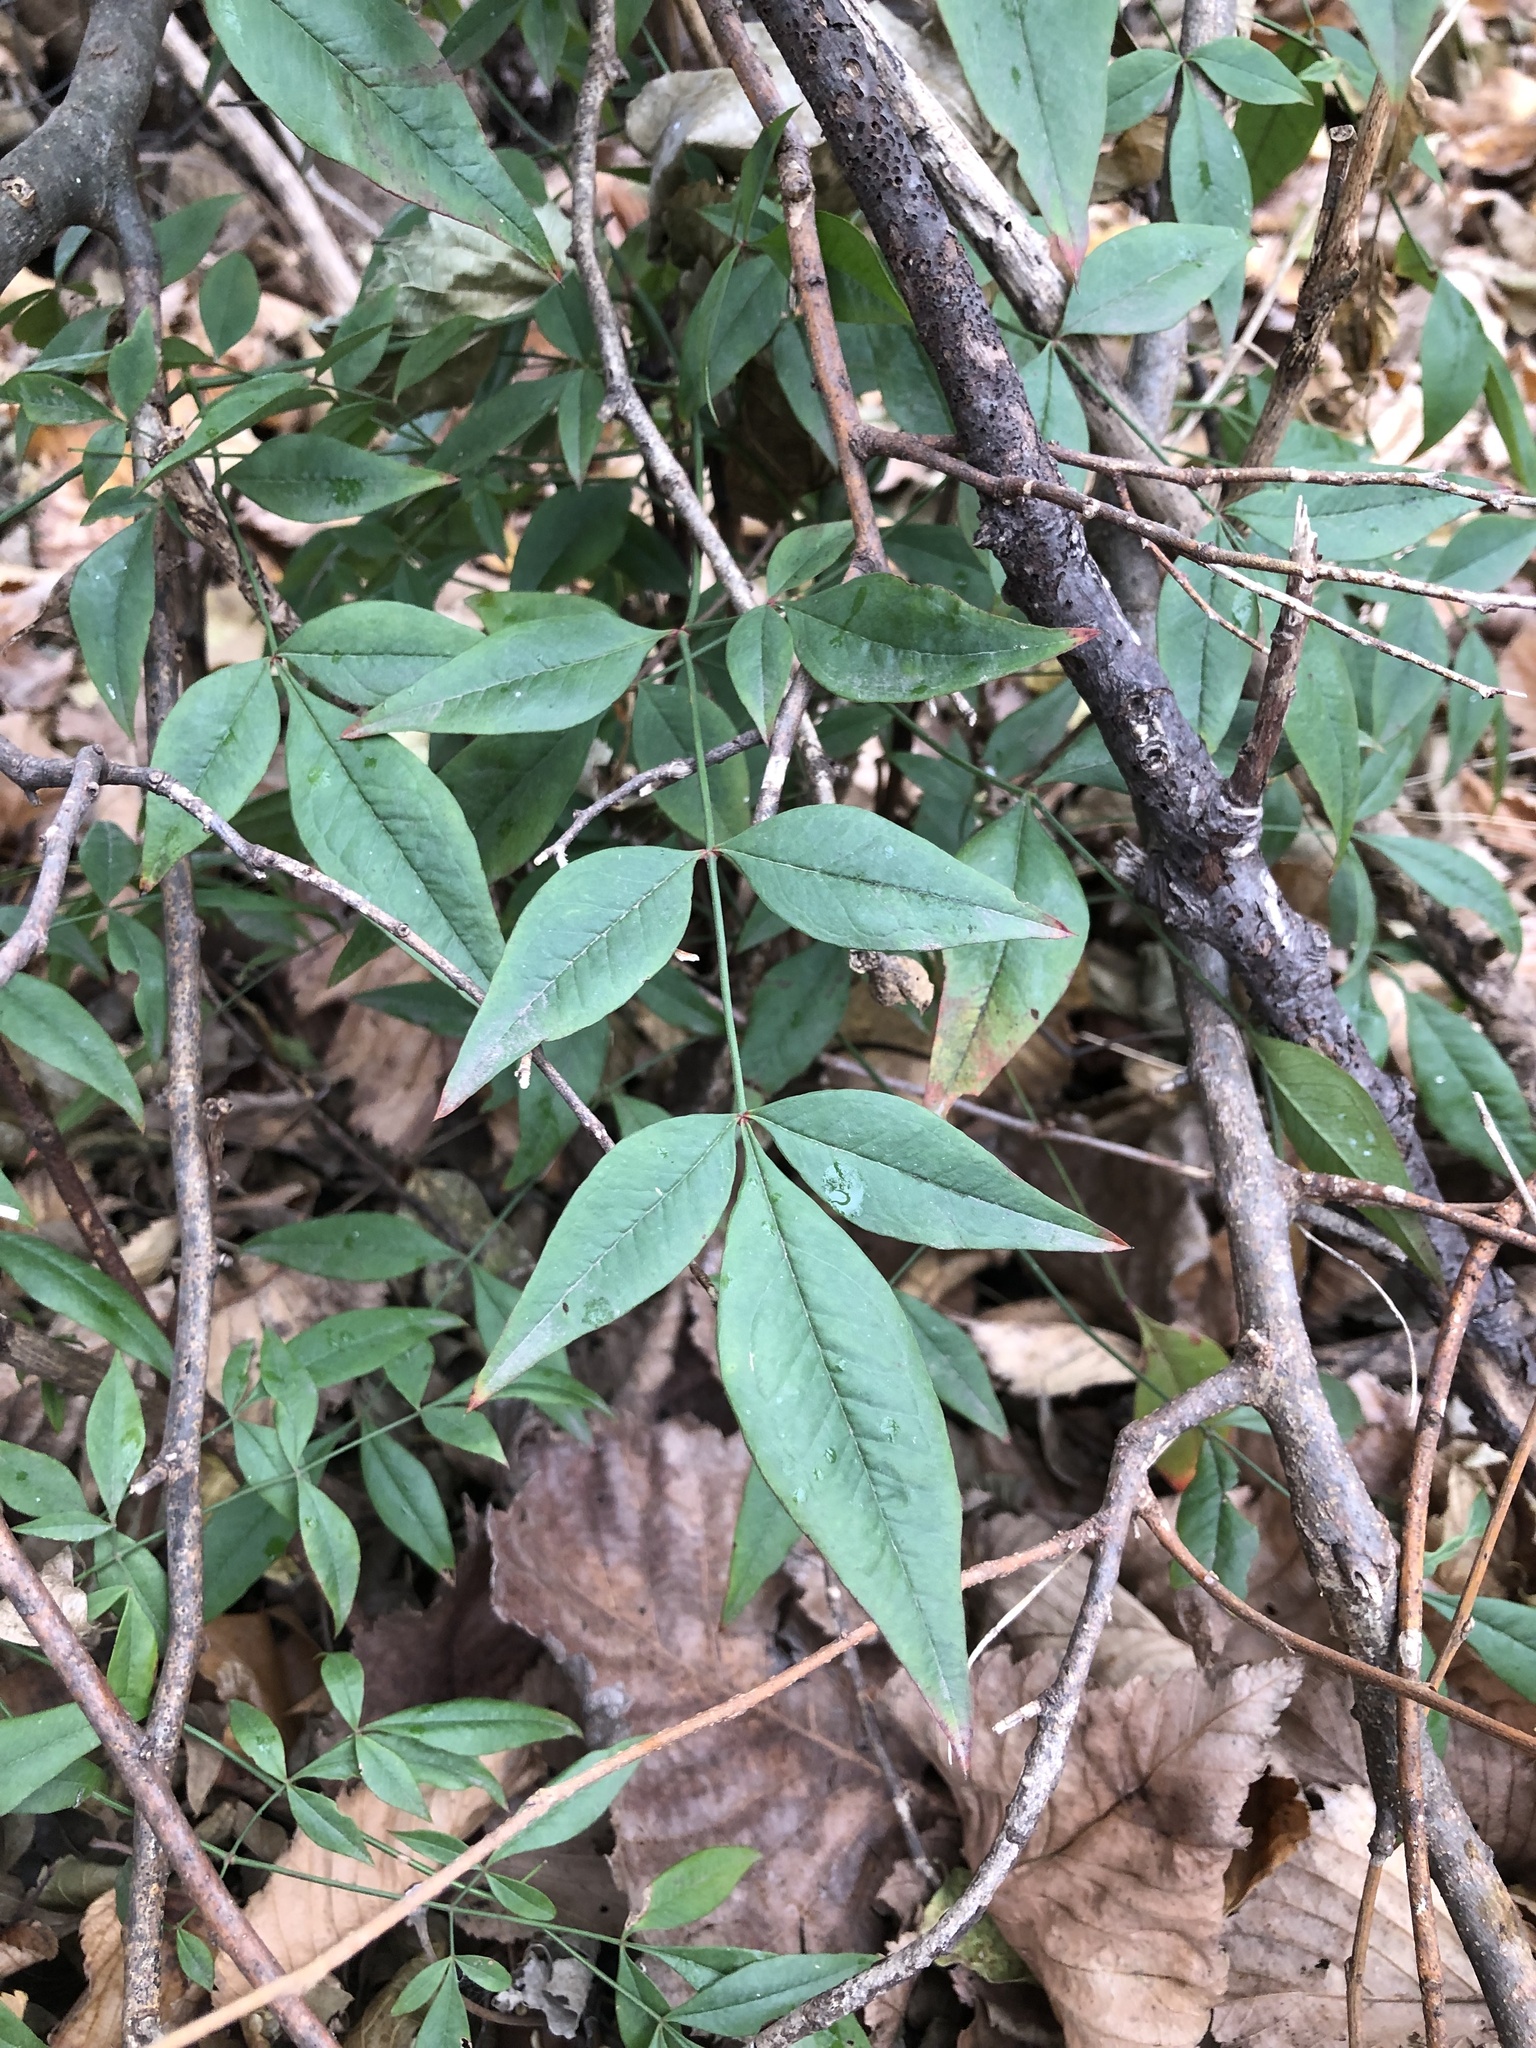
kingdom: Plantae
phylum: Tracheophyta
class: Magnoliopsida
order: Ranunculales
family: Berberidaceae
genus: Nandina
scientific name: Nandina domestica
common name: Sacred bamboo
